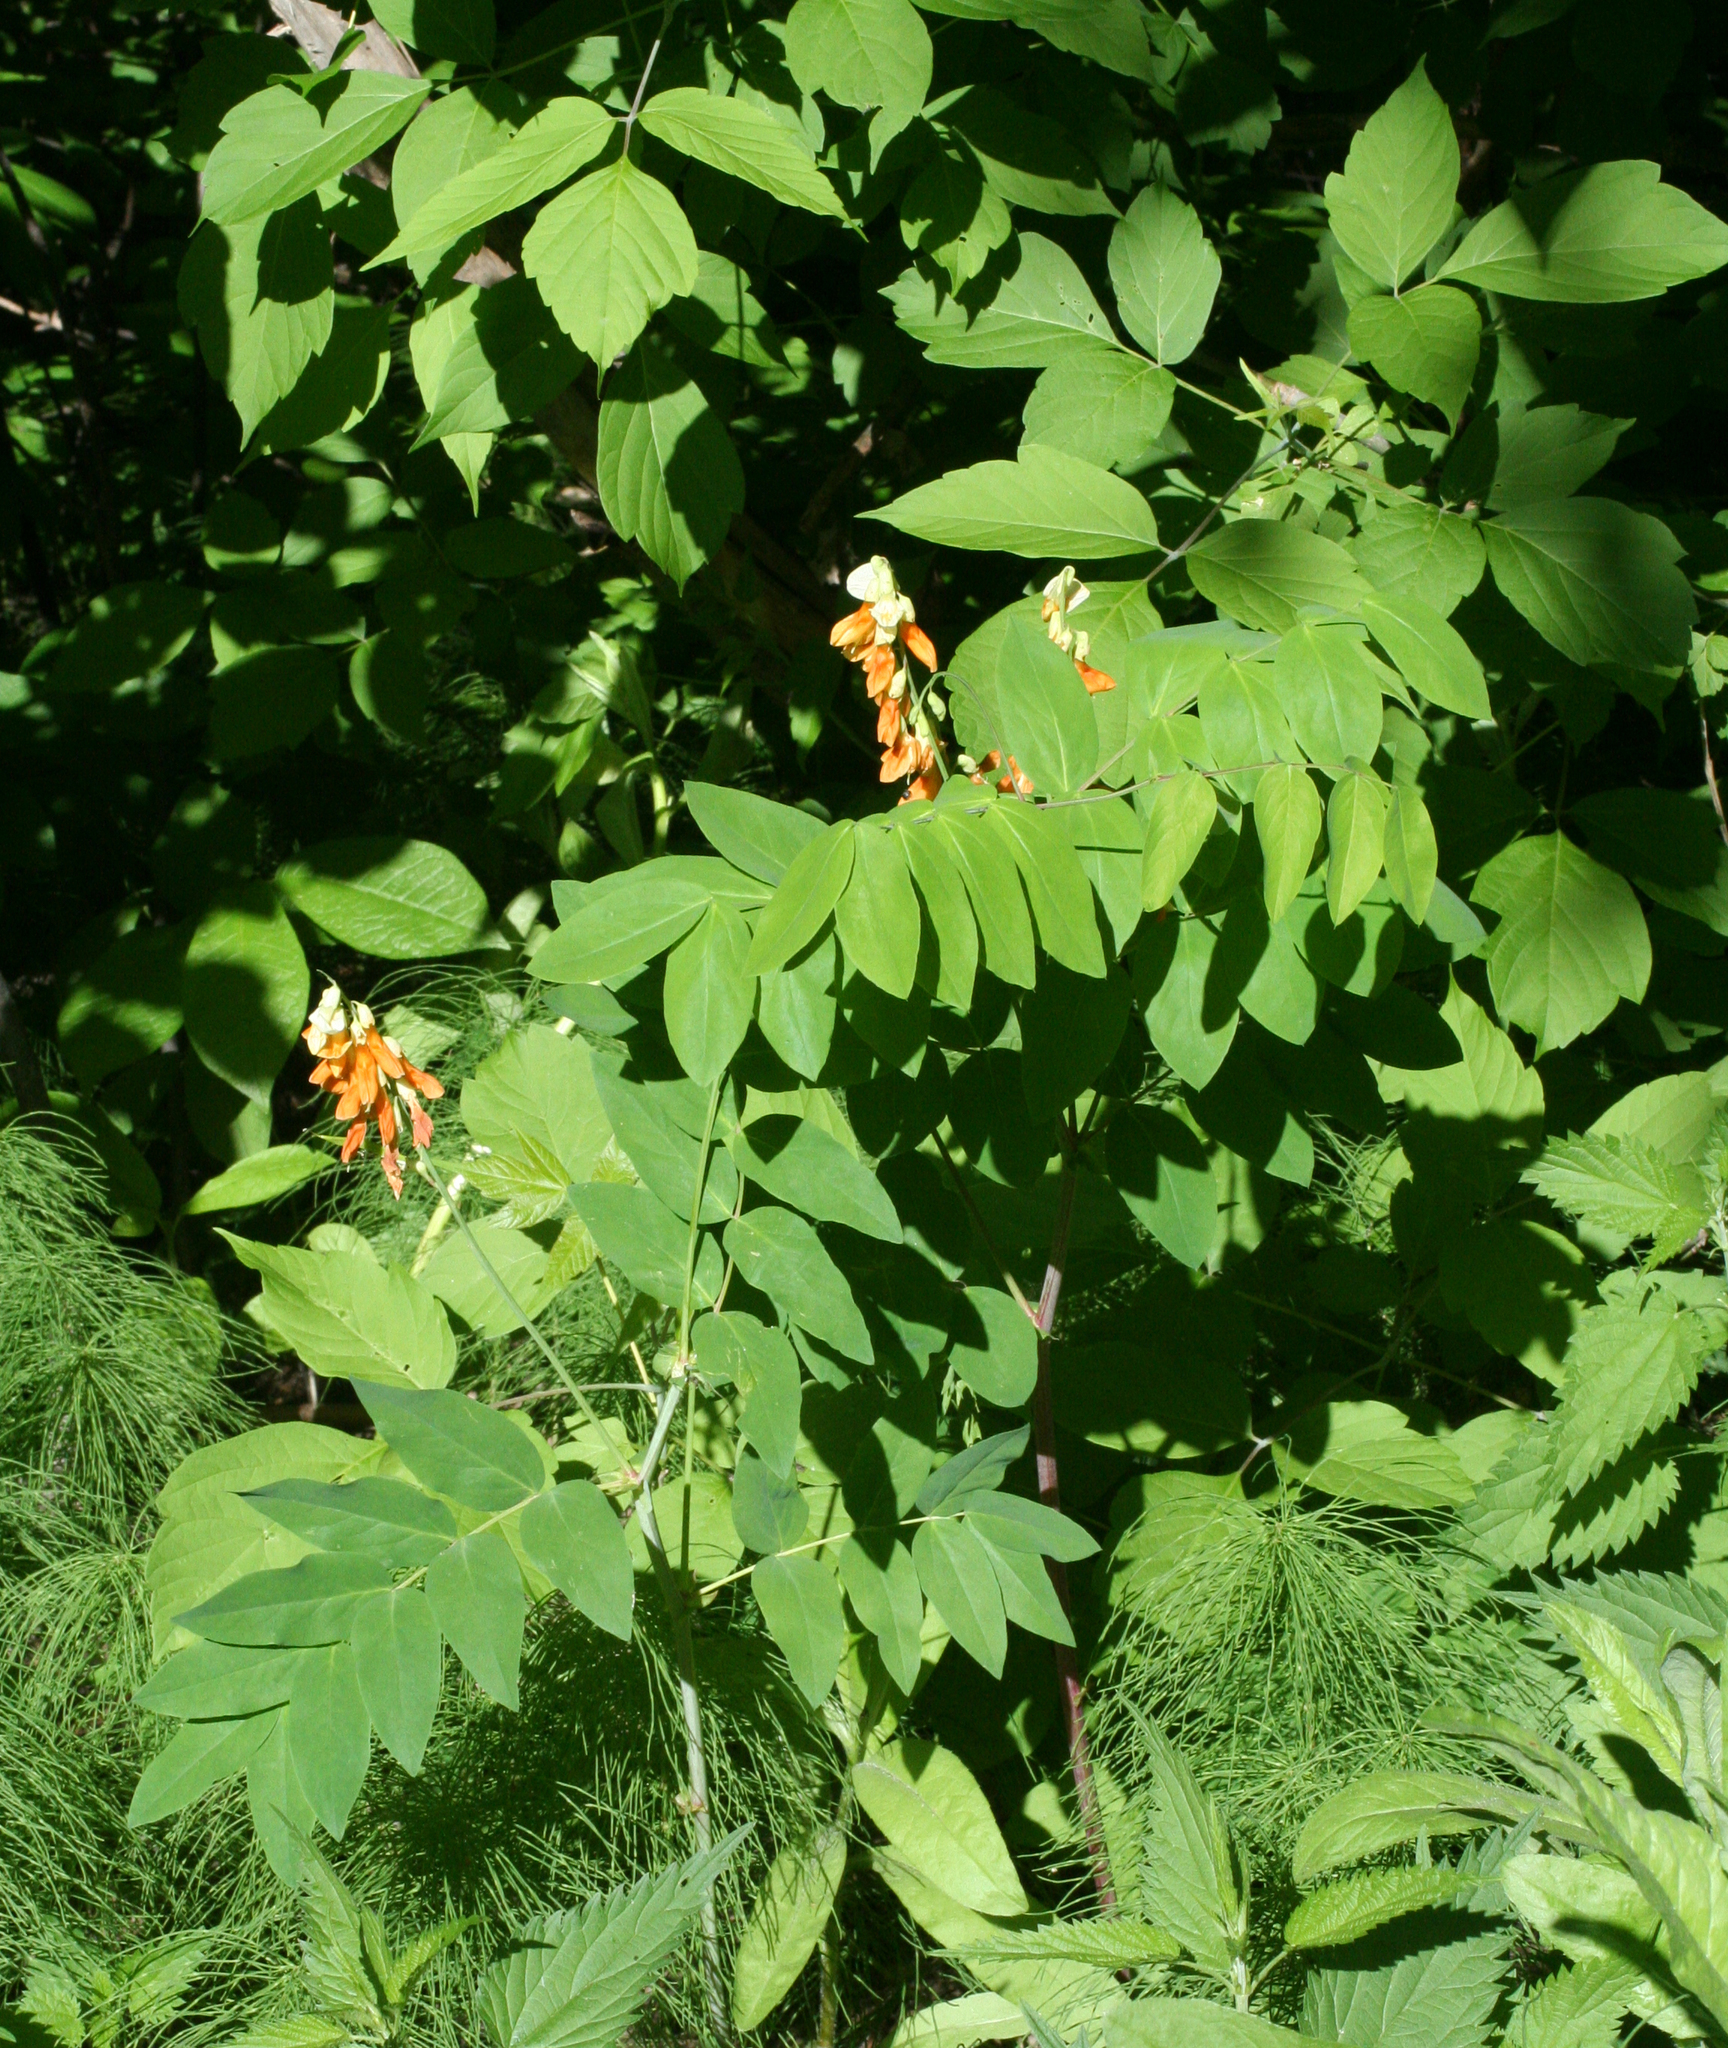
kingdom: Plantae
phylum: Tracheophyta
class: Magnoliopsida
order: Fabales
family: Fabaceae
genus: Lathyrus
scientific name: Lathyrus gmelinii
